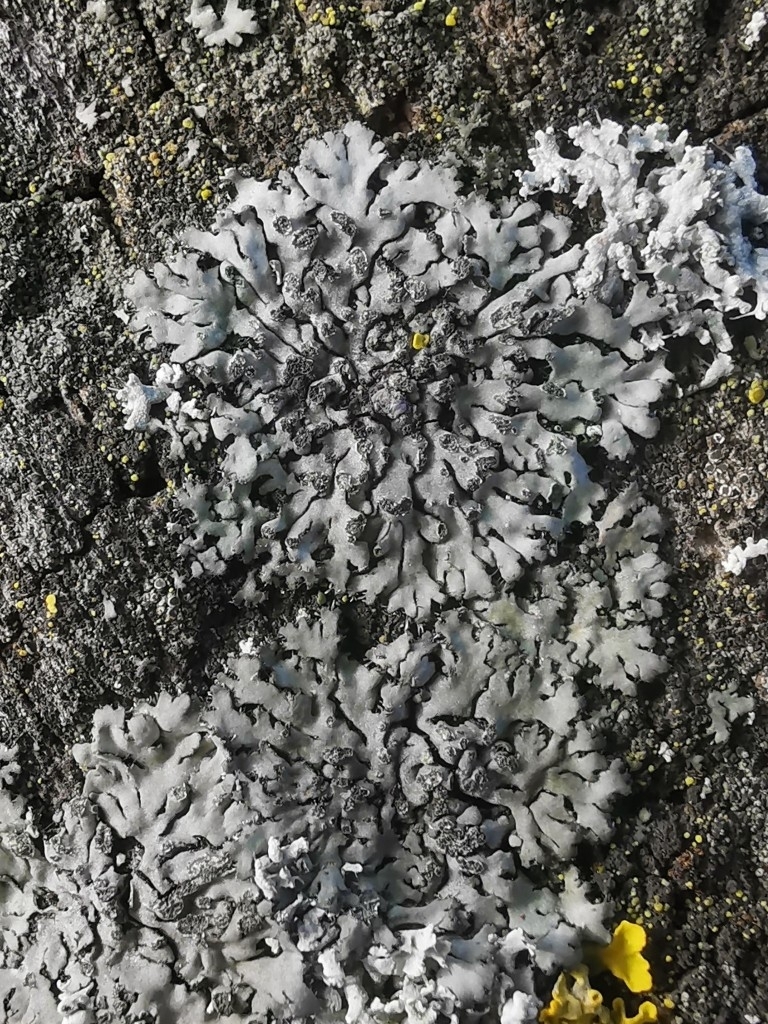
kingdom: Fungi
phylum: Ascomycota
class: Lecanoromycetes
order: Caliciales
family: Physciaceae
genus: Phaeophyscia
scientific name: Phaeophyscia orbicularis
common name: Mealy shadow lichen
